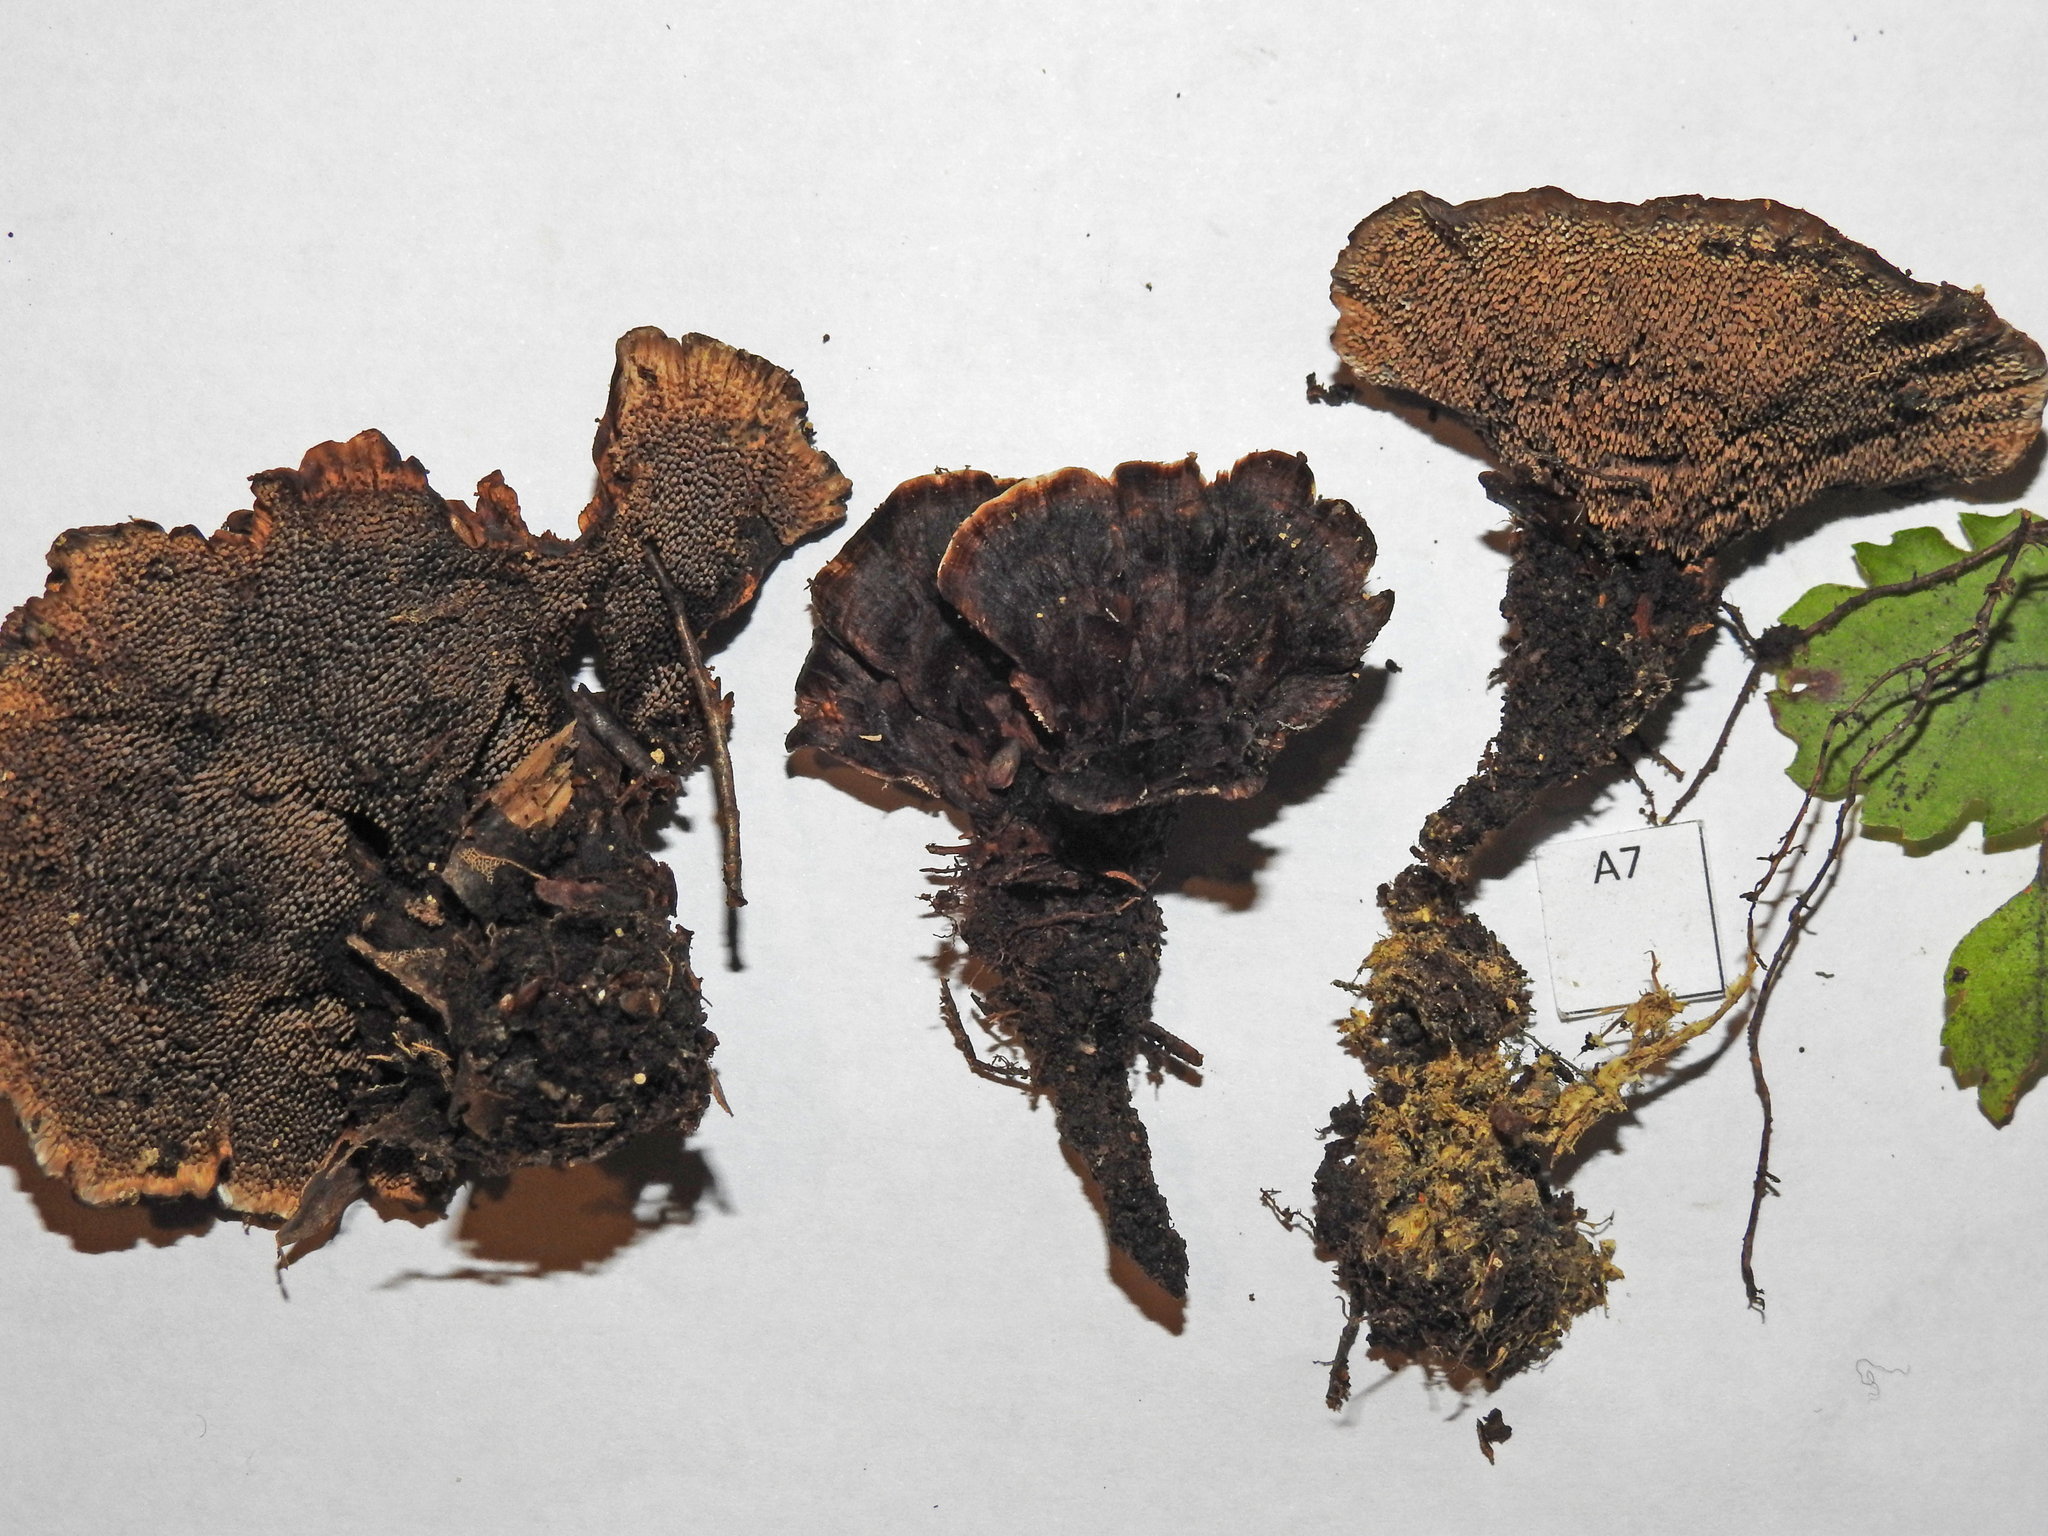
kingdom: Fungi
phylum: Basidiomycota
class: Agaricomycetes
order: Thelephorales
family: Thelephoraceae
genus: Phellodon
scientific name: Phellodon plicatus
